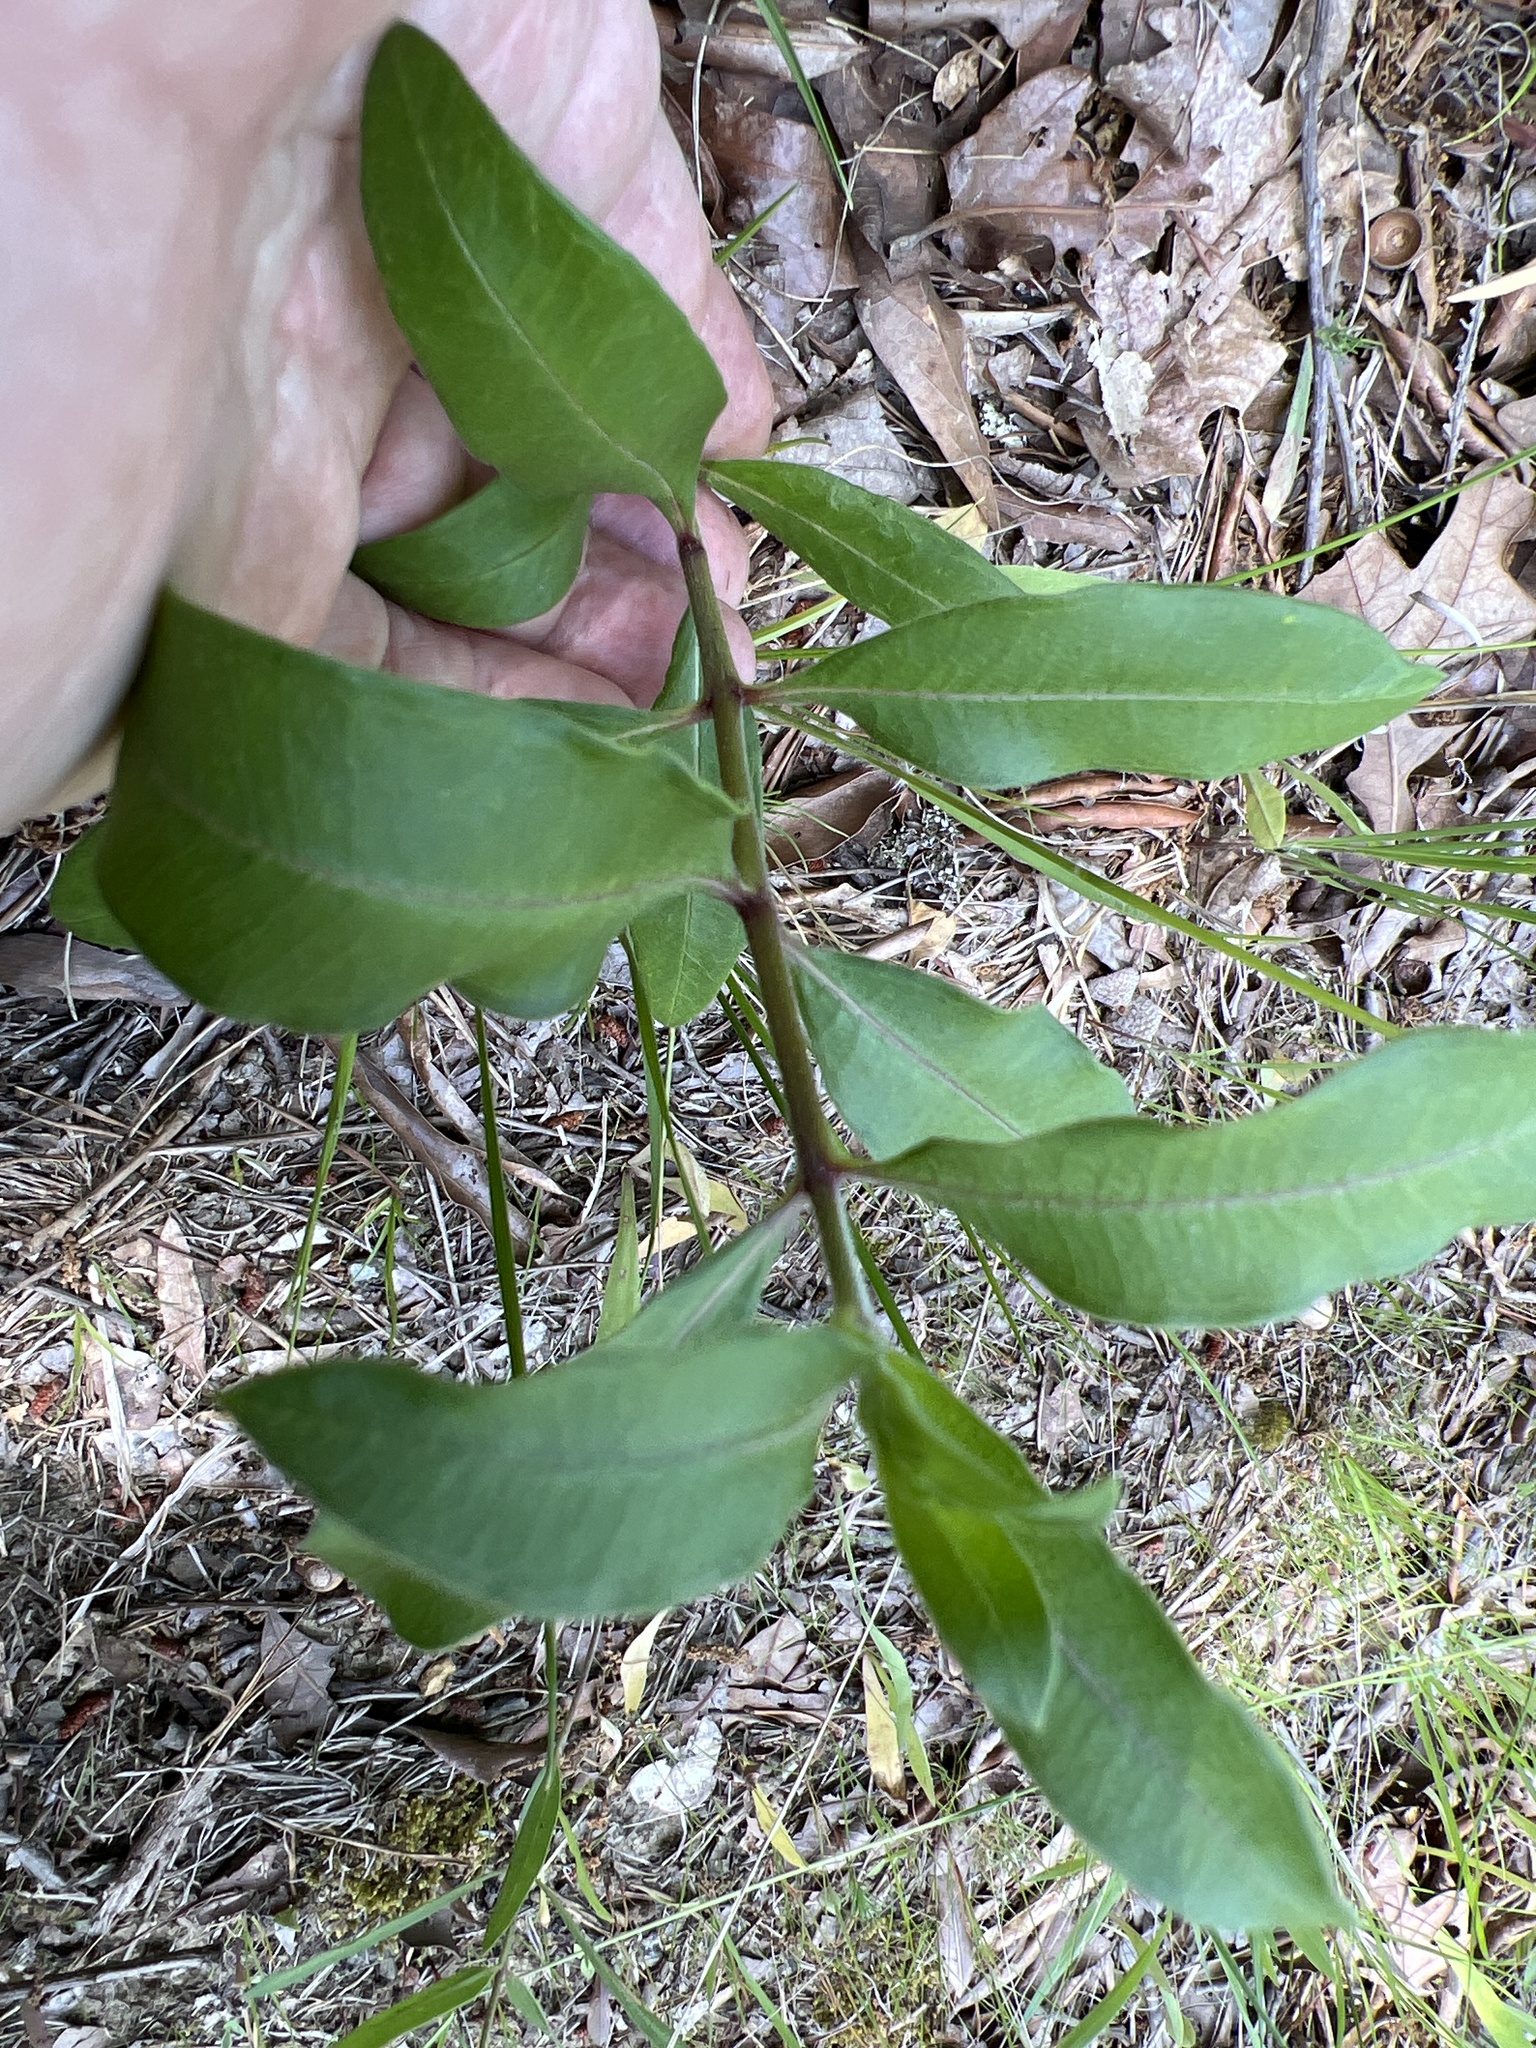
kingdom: Plantae
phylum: Tracheophyta
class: Magnoliopsida
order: Gentianales
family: Apocynaceae
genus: Asclepias
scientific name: Asclepias viridiflora
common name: Green comet milkweed
